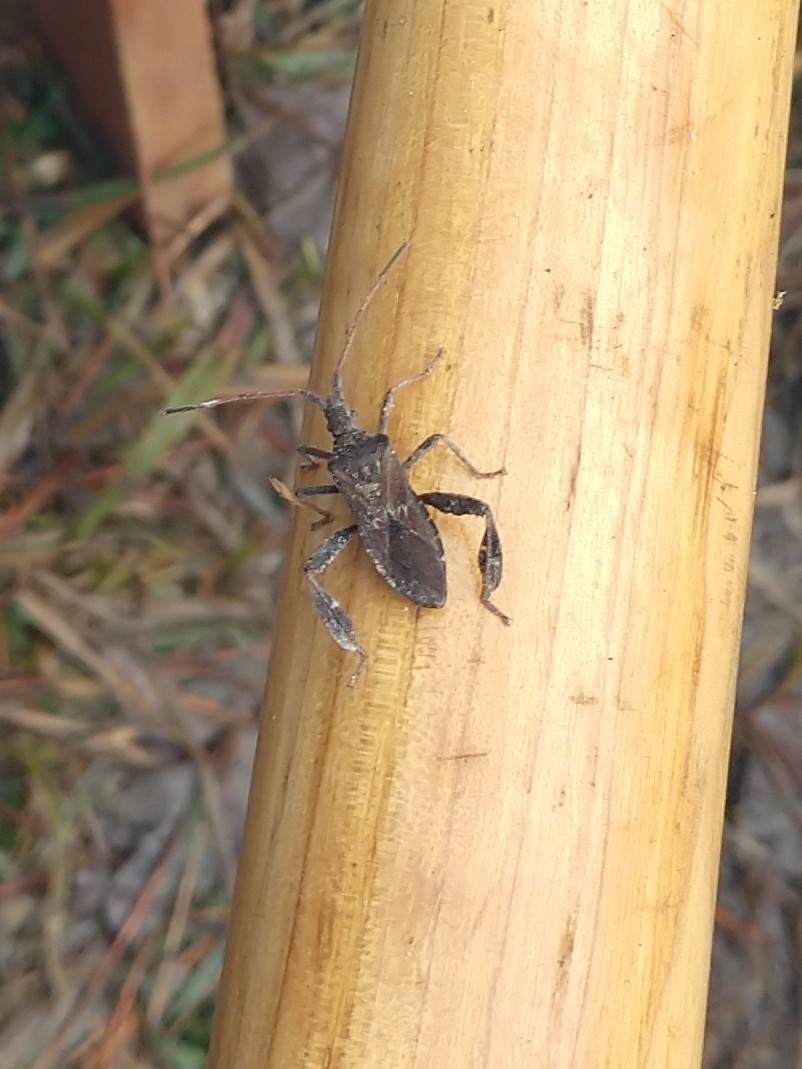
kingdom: Animalia
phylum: Arthropoda
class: Insecta
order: Hemiptera
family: Coreidae
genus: Leptoglossus
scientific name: Leptoglossus corculus
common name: Southern pine seed bug
